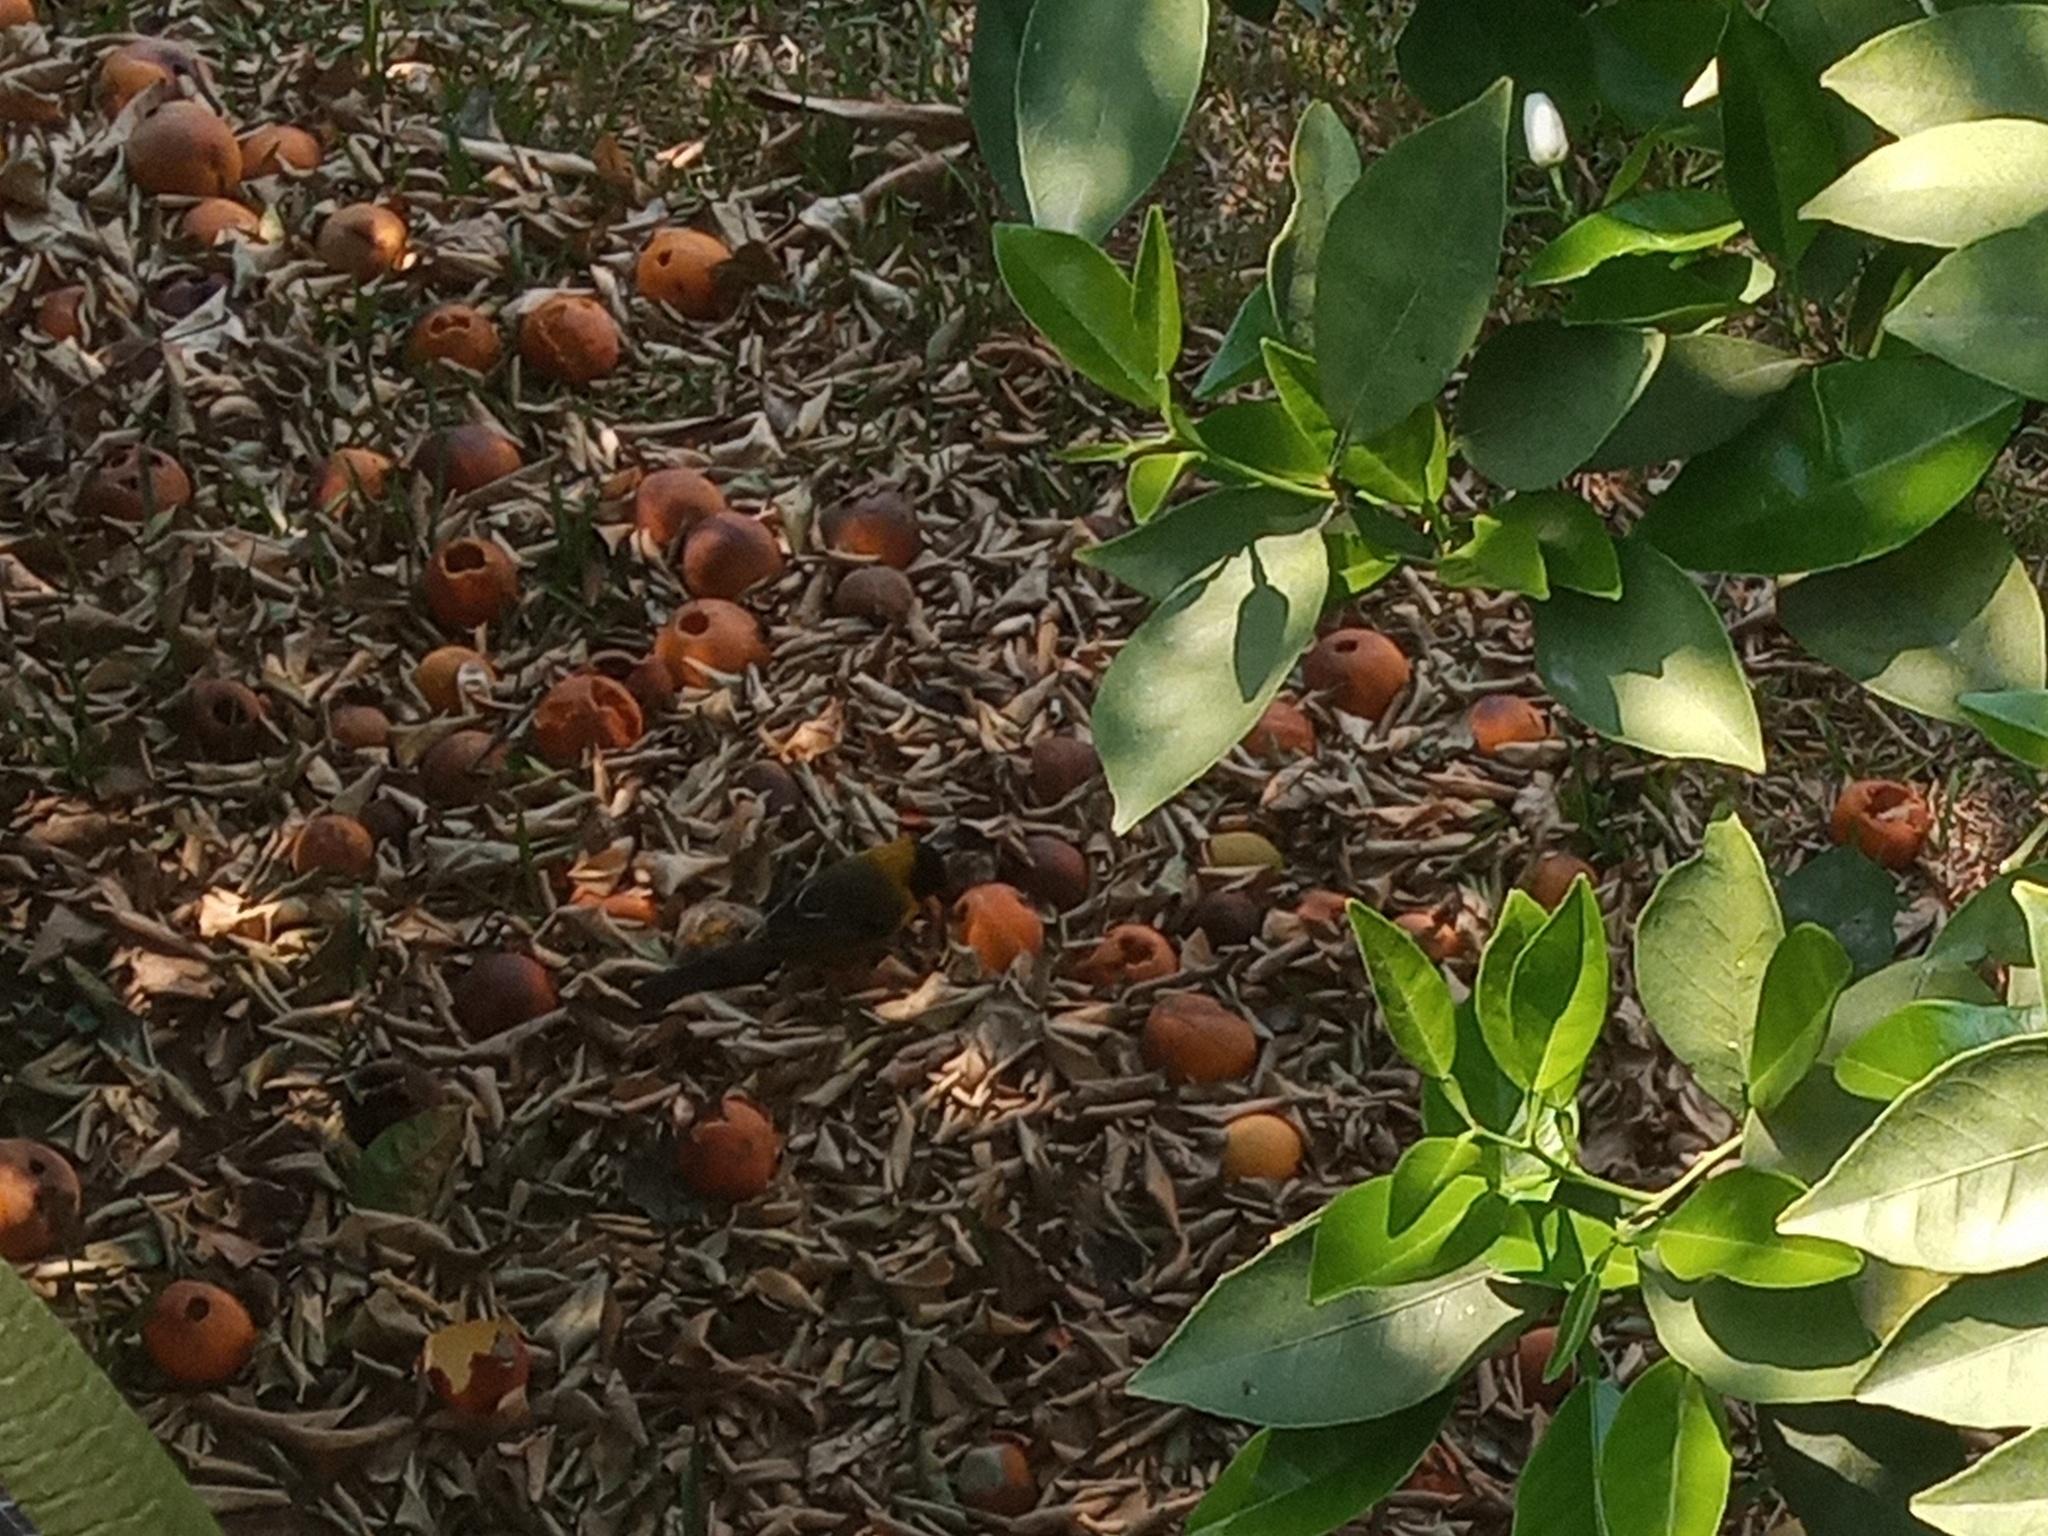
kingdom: Animalia
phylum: Chordata
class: Aves
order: Passeriformes
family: Icteridae
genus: Icterus
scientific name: Icterus graduacauda
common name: Audubon's oriole
